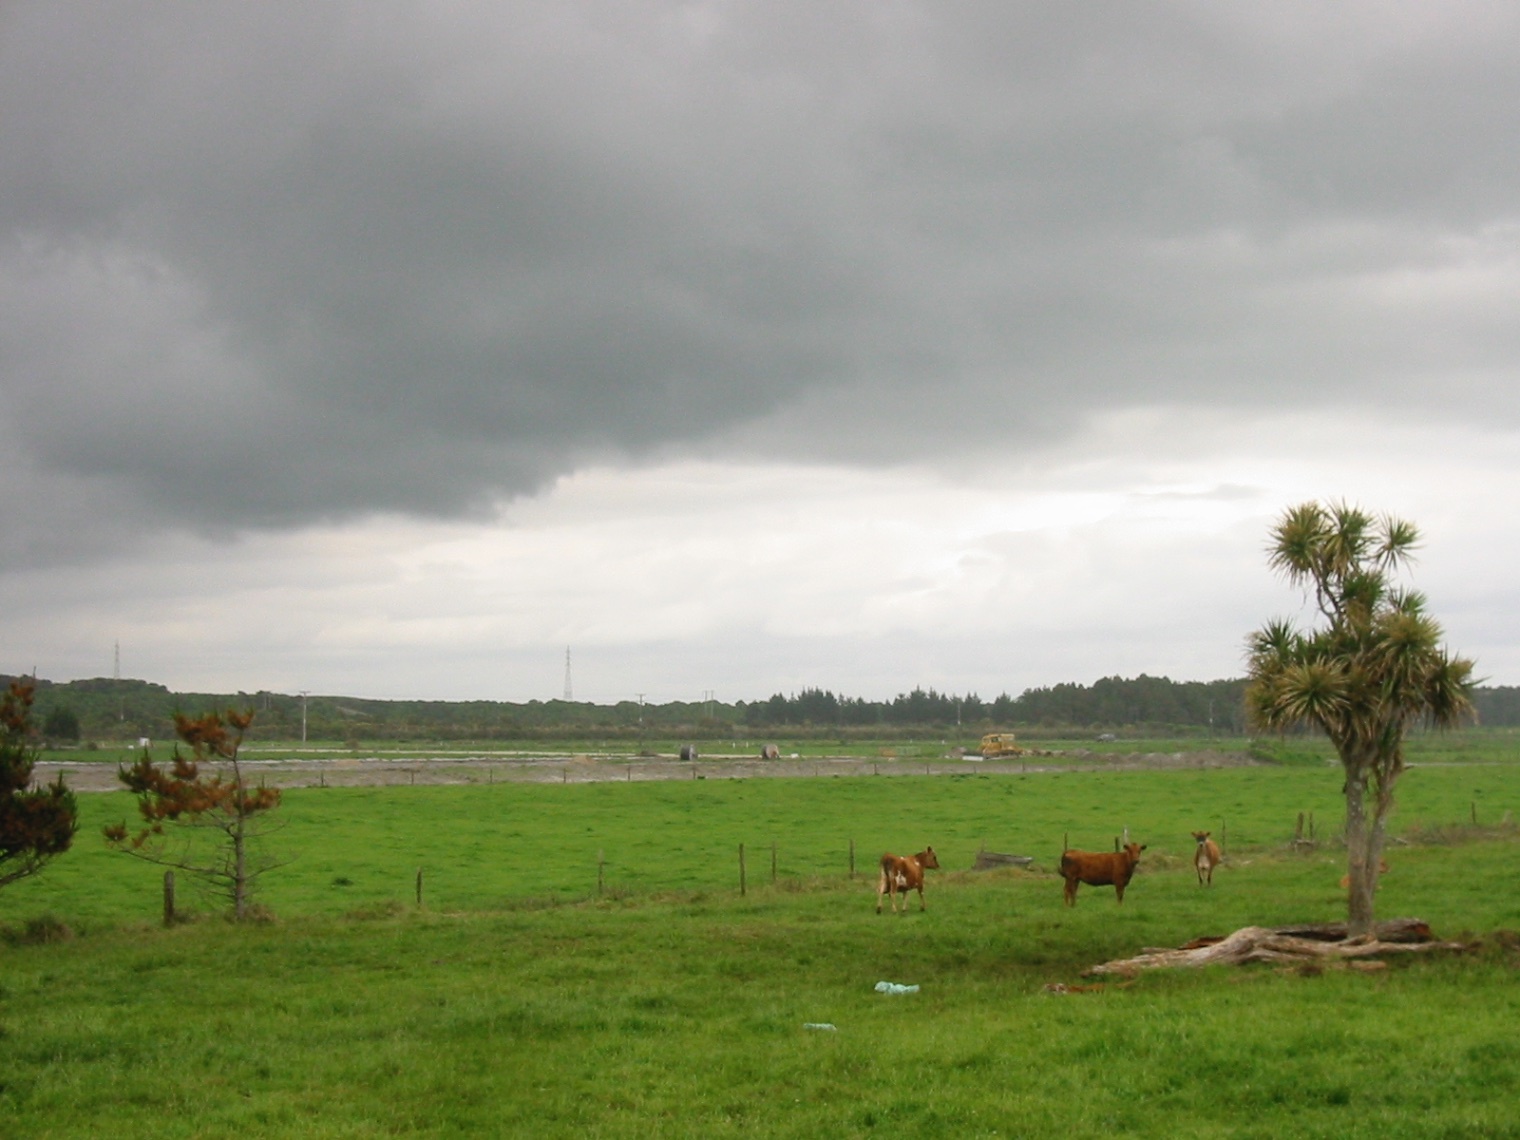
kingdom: Plantae
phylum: Tracheophyta
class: Liliopsida
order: Asparagales
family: Asparagaceae
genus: Cordyline
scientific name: Cordyline australis
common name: Cabbage-palm
